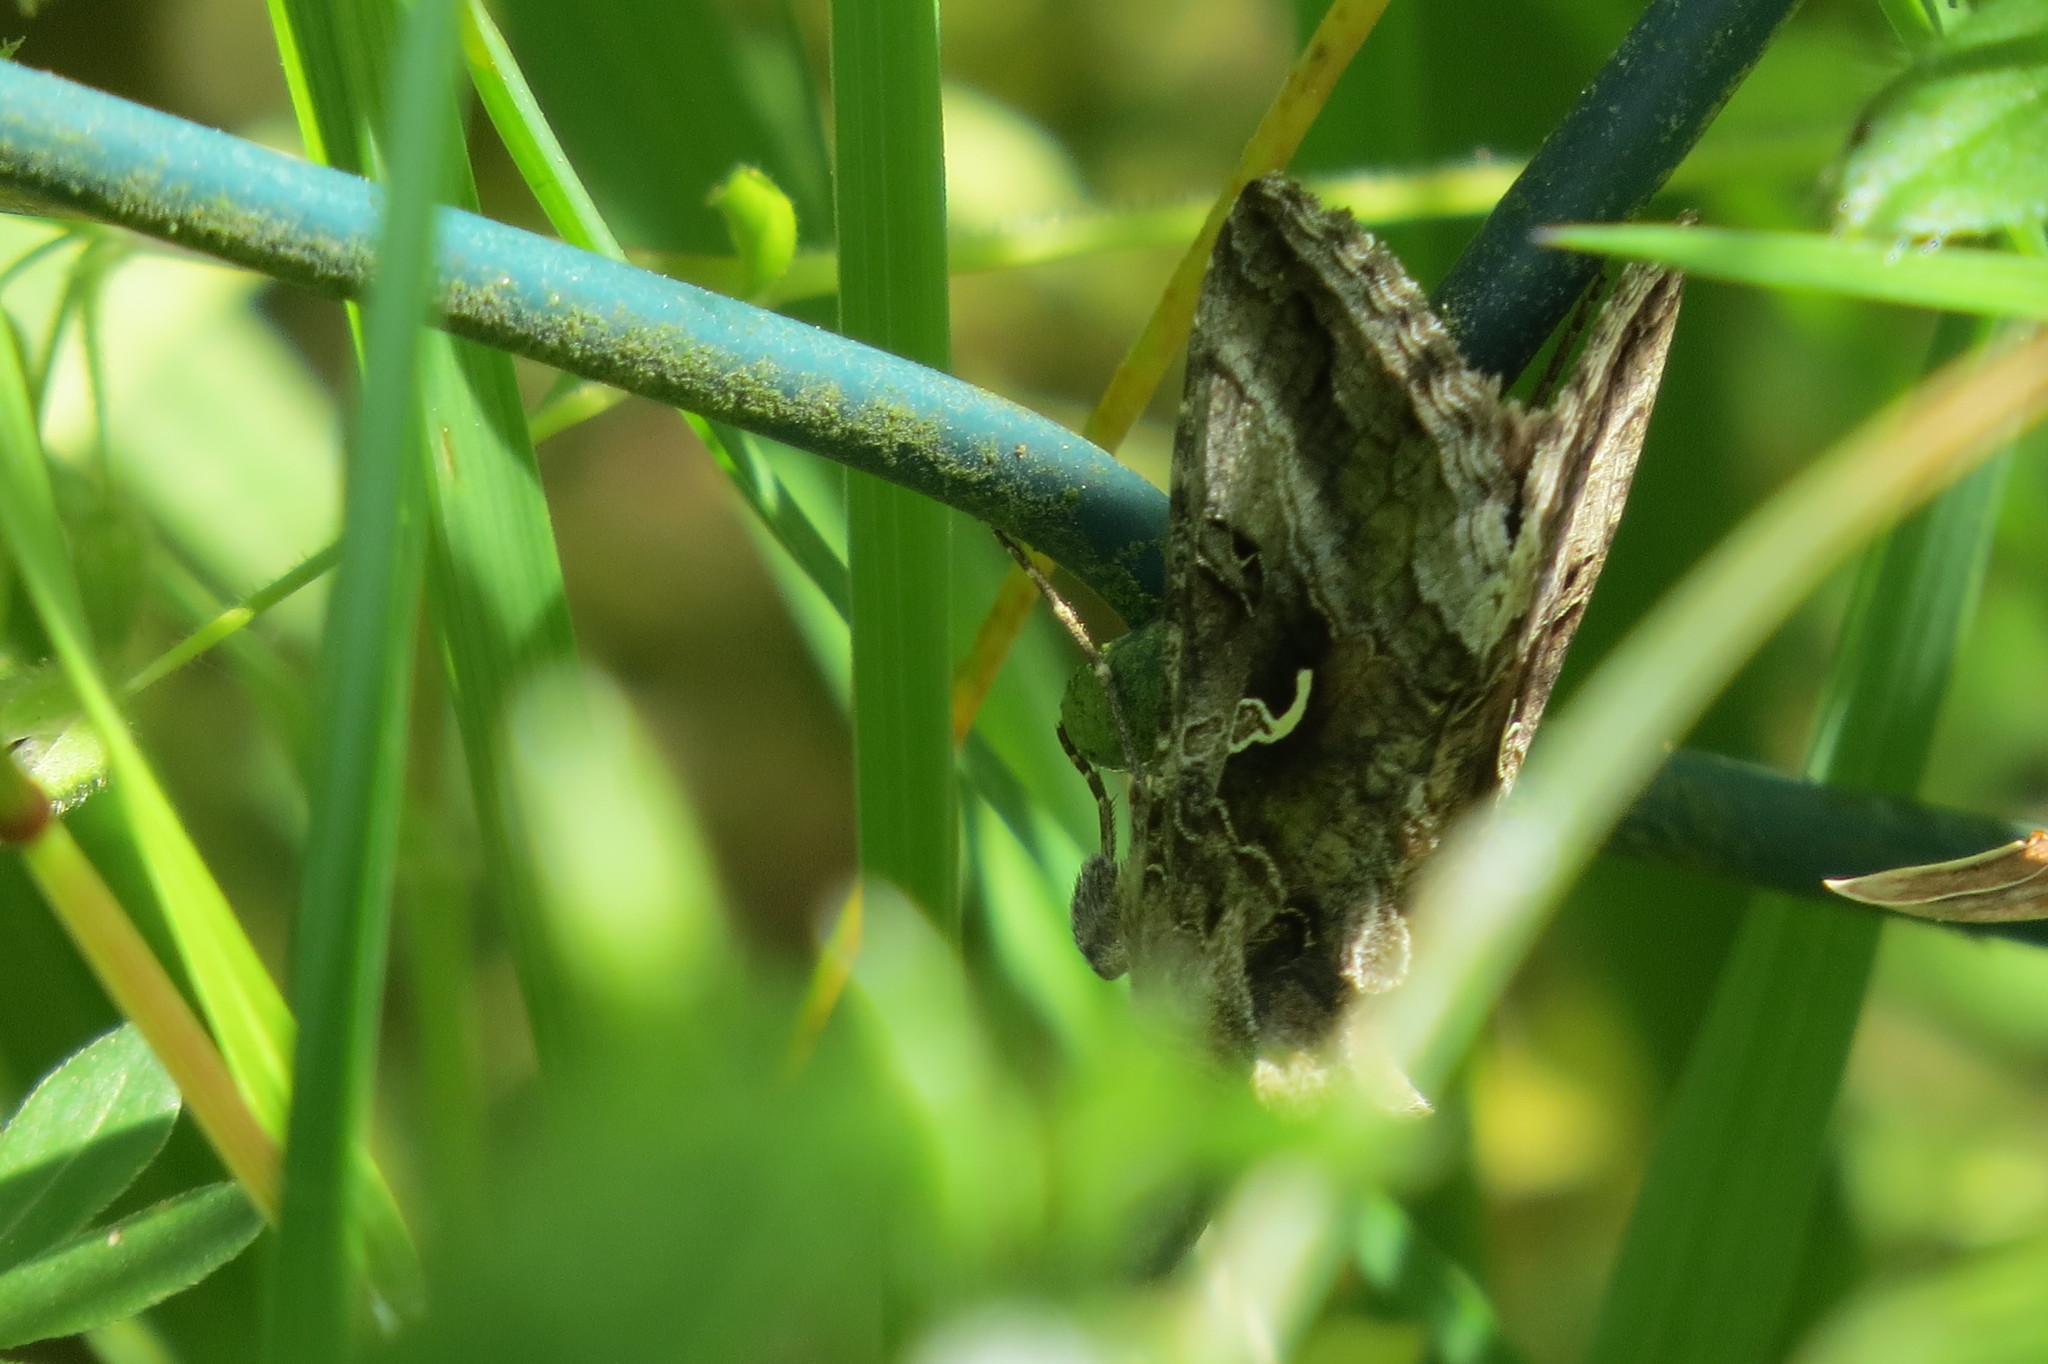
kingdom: Animalia
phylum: Arthropoda
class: Insecta
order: Lepidoptera
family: Noctuidae
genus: Autographa
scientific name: Autographa gamma
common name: Silver y
